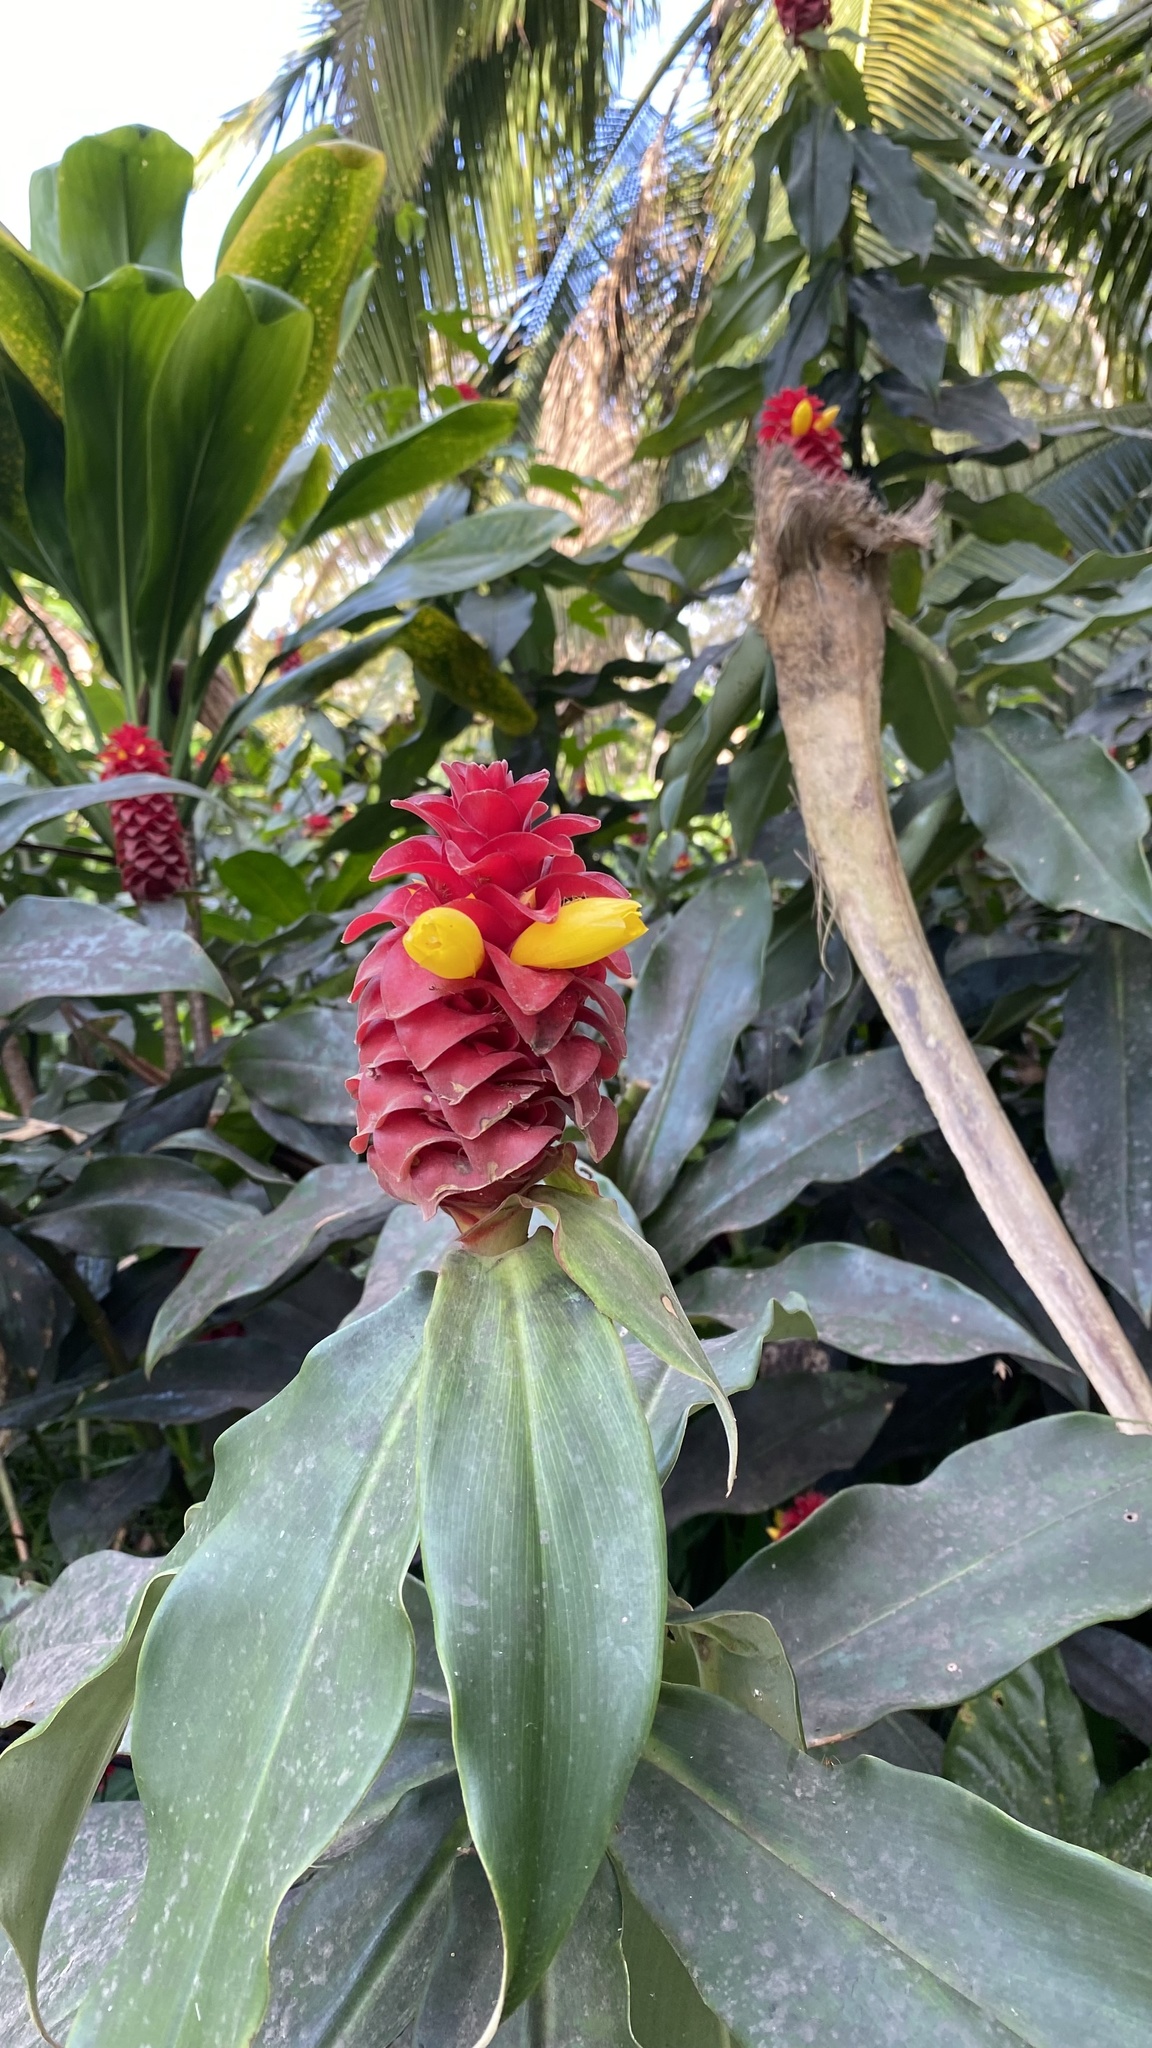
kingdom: Plantae
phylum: Tracheophyta
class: Liliopsida
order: Zingiberales
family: Costaceae
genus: Costus
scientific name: Costus comosus
